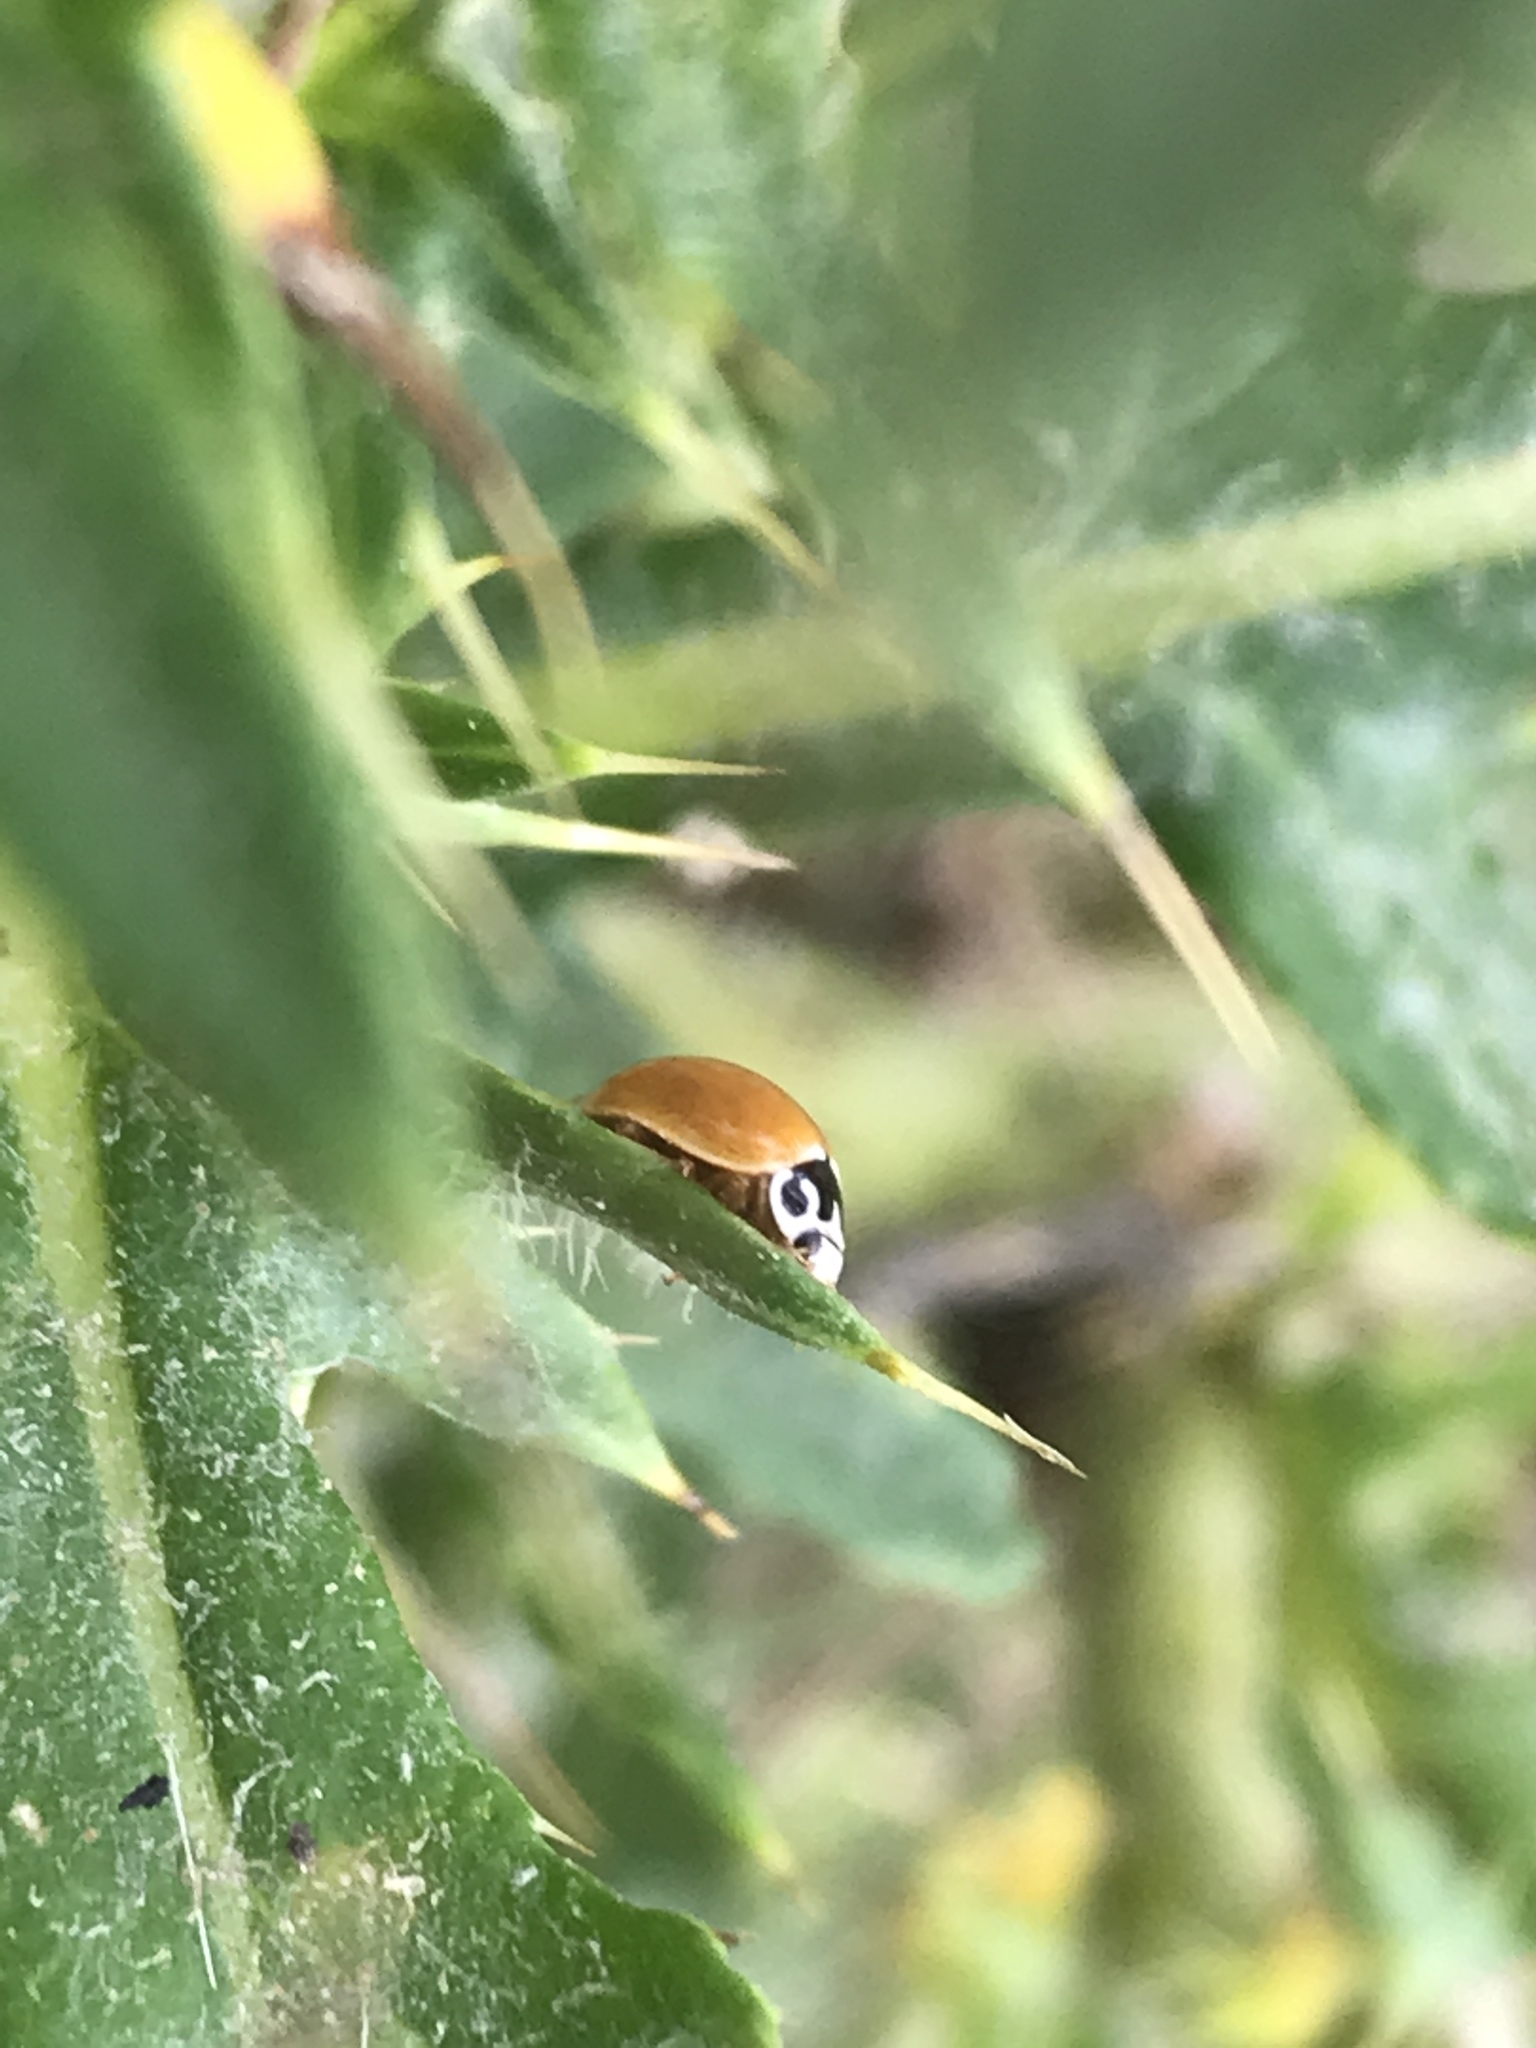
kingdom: Animalia
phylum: Arthropoda
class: Insecta
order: Coleoptera
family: Coccinellidae
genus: Cycloneda
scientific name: Cycloneda munda
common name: Polished lady beetle
